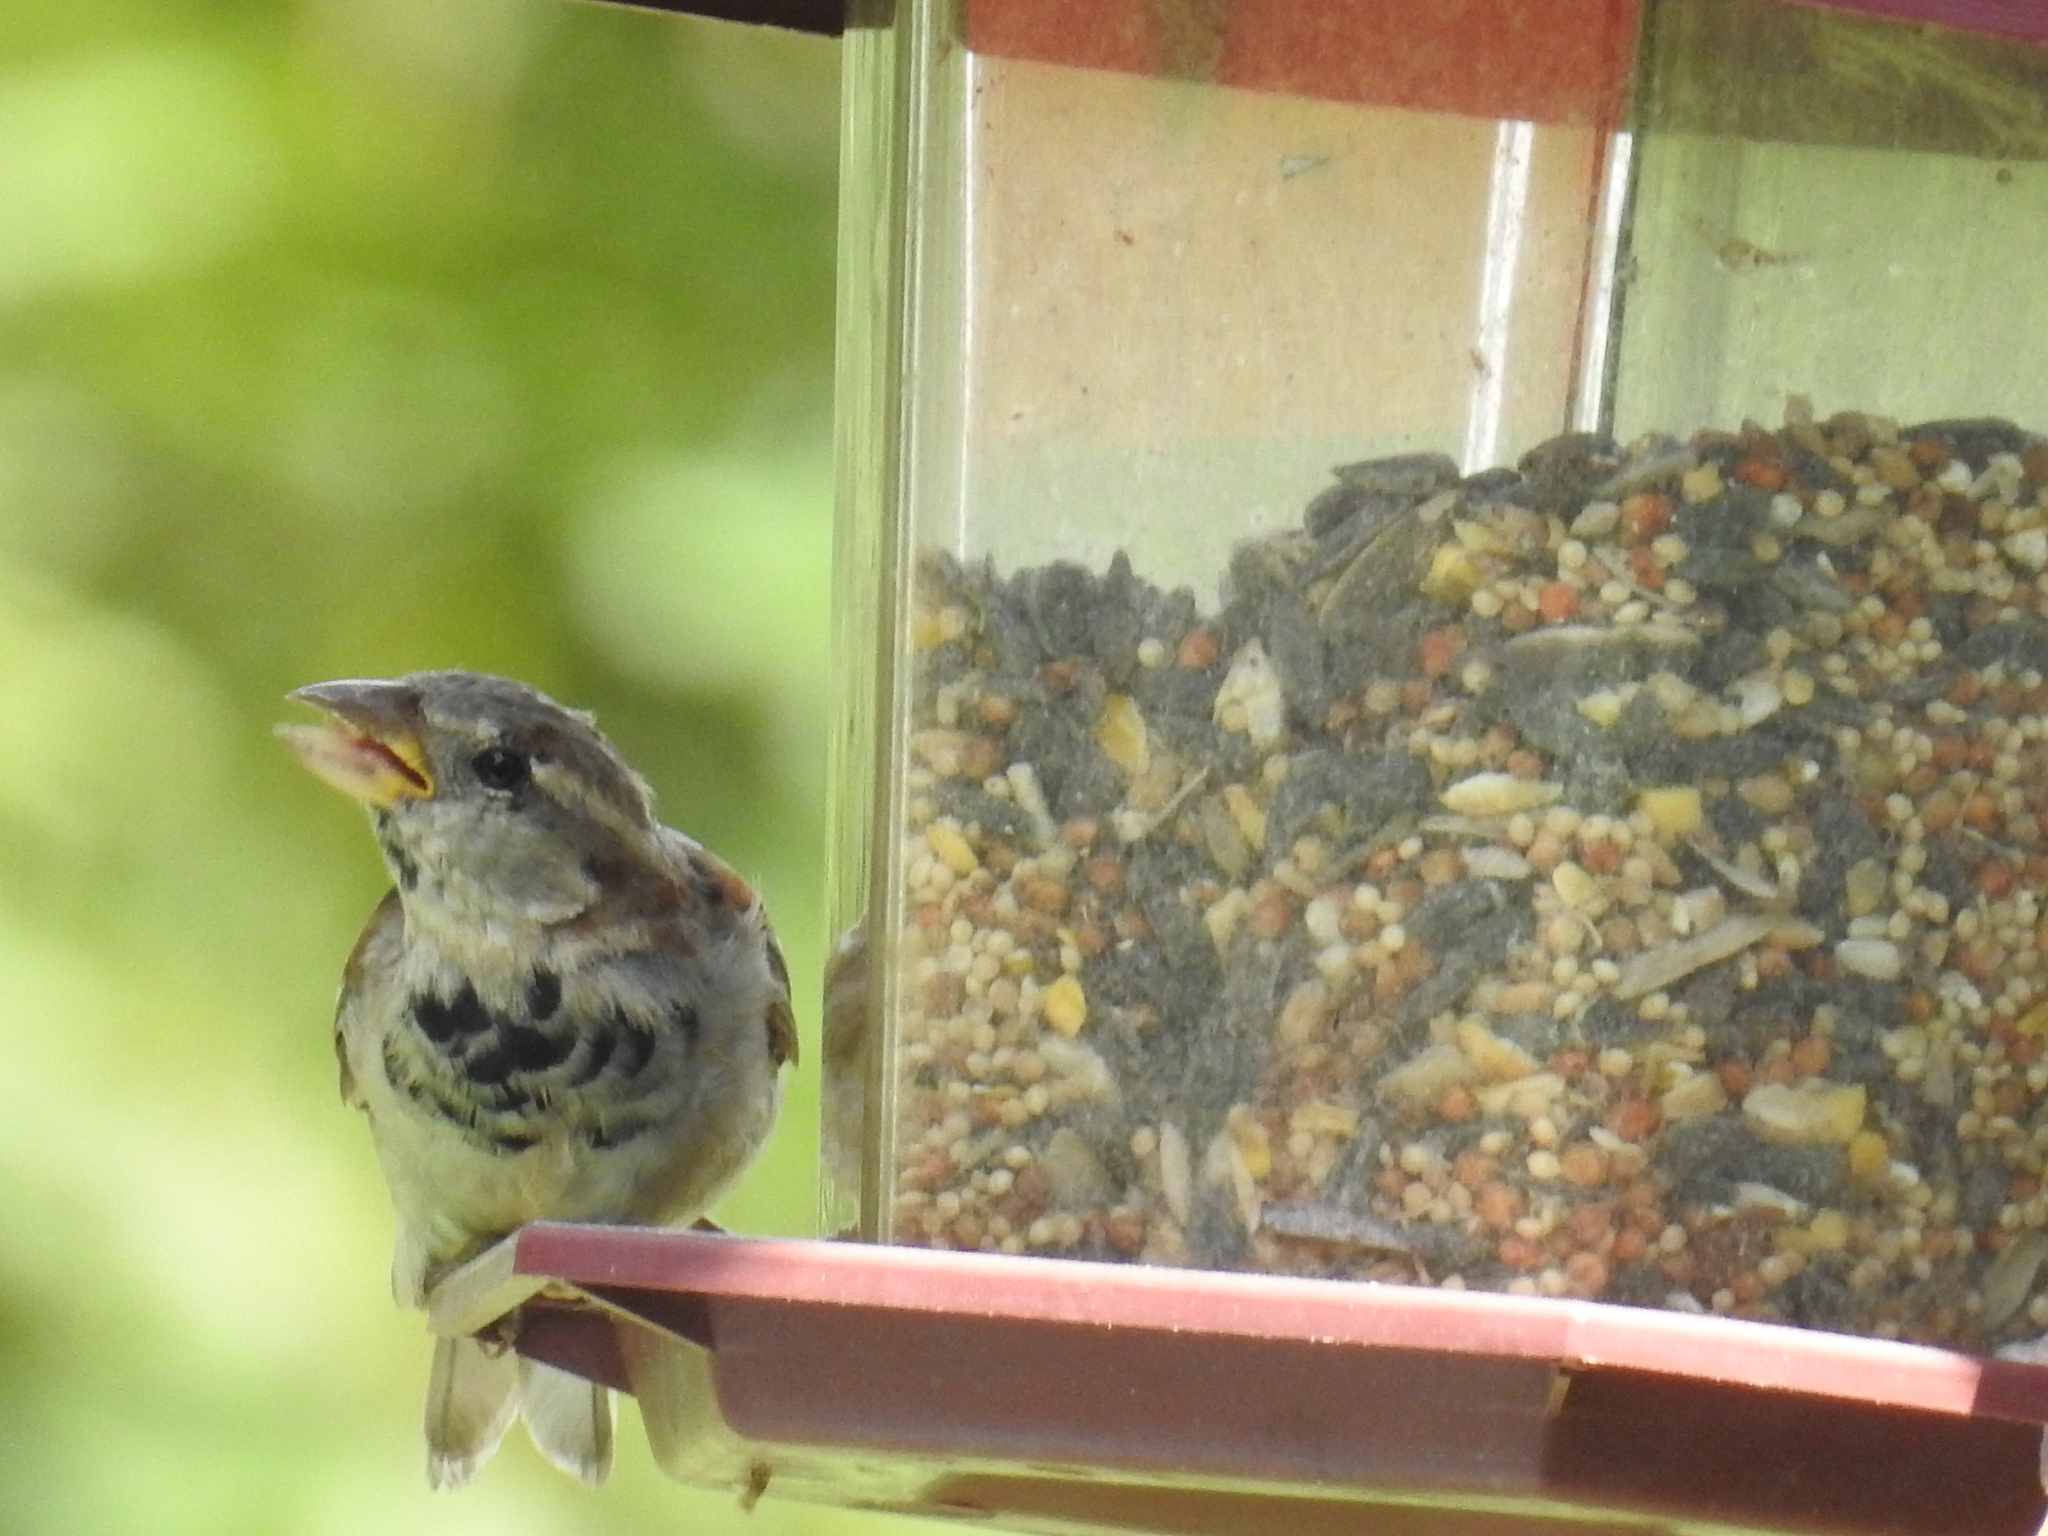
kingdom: Animalia
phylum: Chordata
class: Aves
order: Passeriformes
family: Passeridae
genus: Passer
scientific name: Passer domesticus
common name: House sparrow
